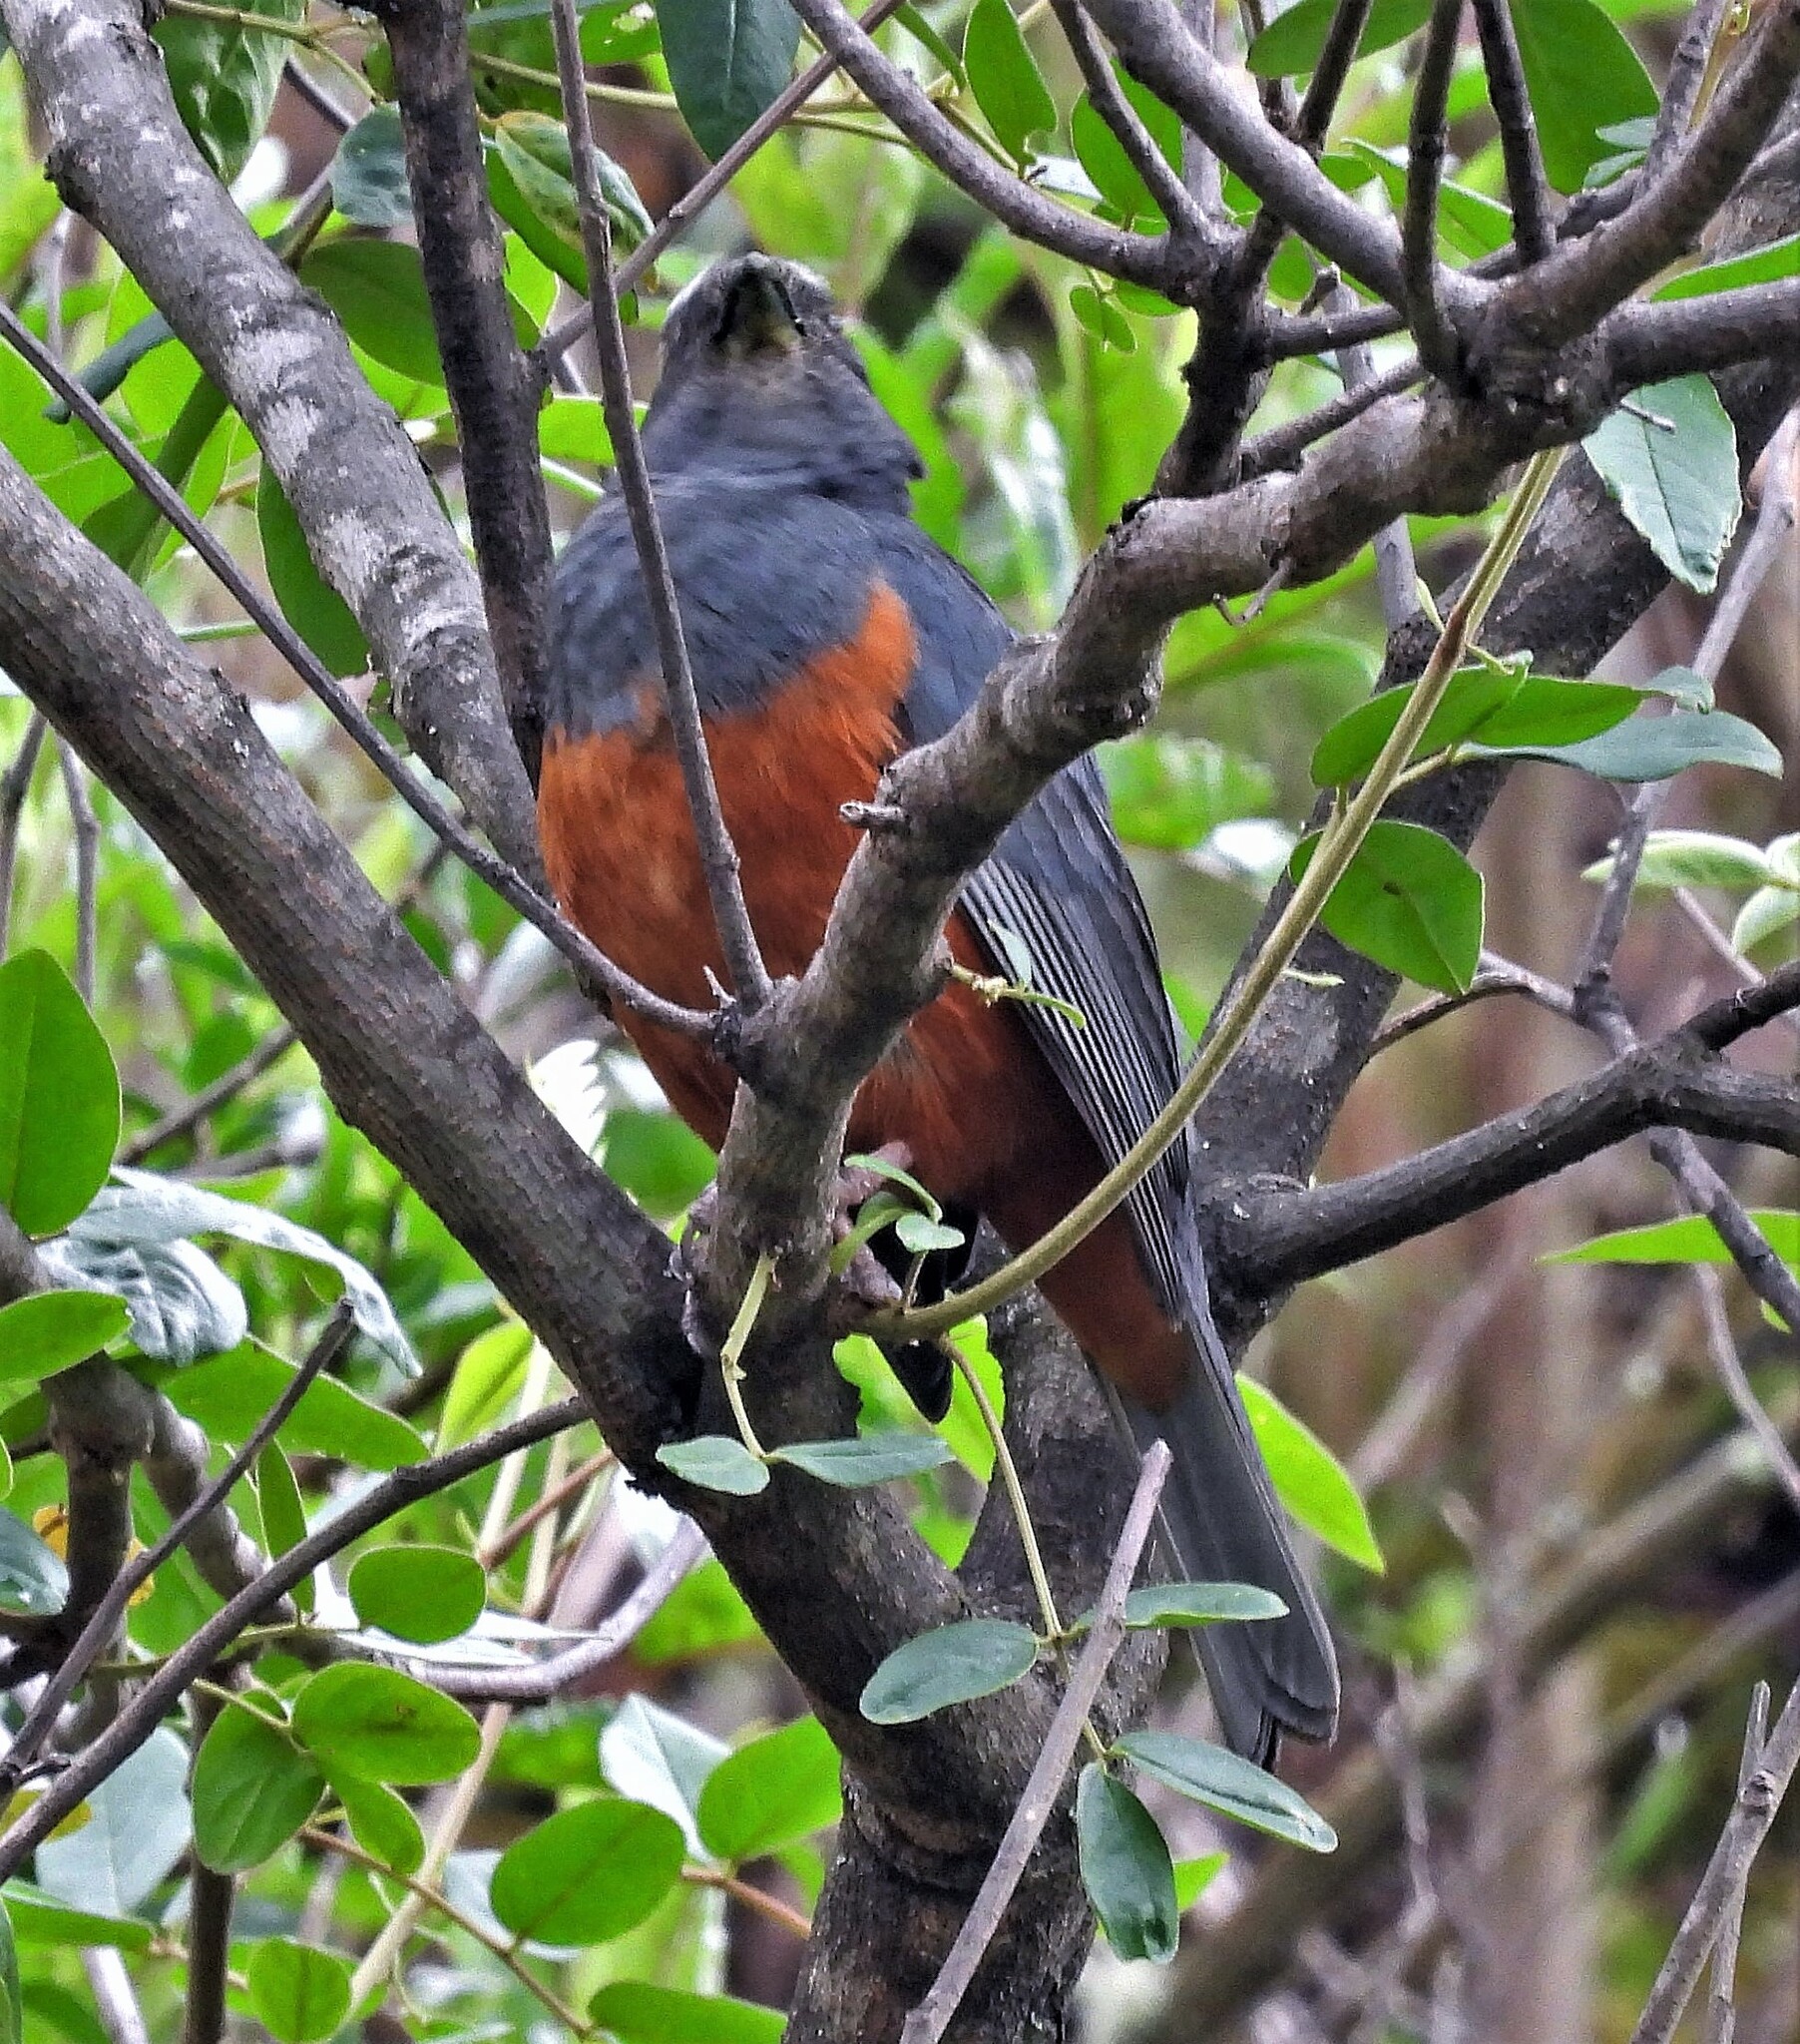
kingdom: Animalia
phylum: Chordata
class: Aves
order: Passeriformes
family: Thraupidae
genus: Pseudosaltator
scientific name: Pseudosaltator rufiventris
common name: Rufous-bellied mountain-tanager
